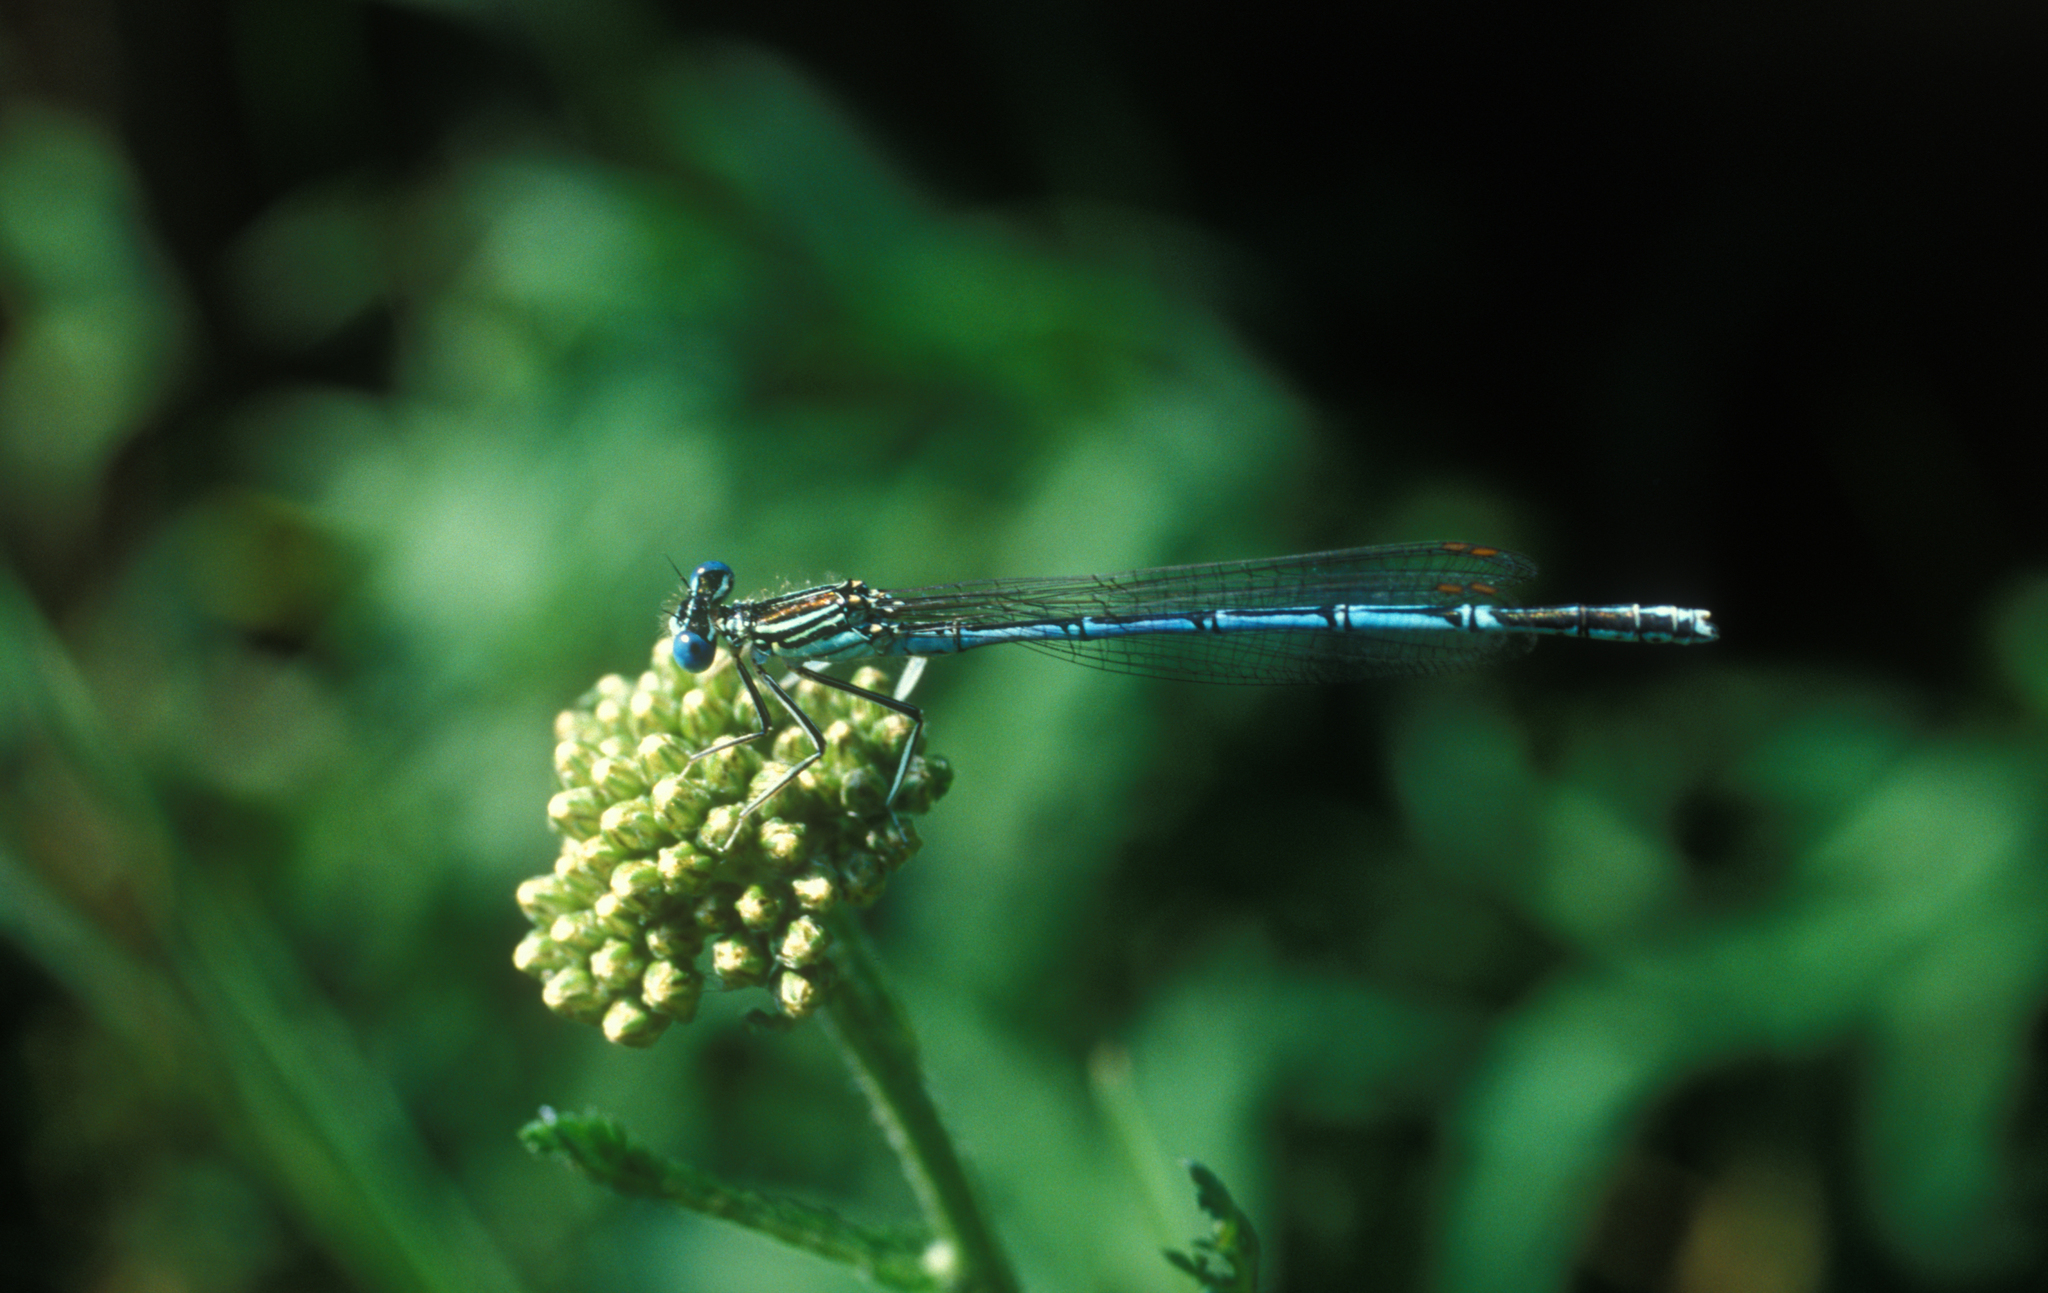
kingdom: Animalia
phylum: Arthropoda
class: Insecta
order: Odonata
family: Platycnemididae
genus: Platycnemis
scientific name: Platycnemis pennipes
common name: White-legged damselfly
